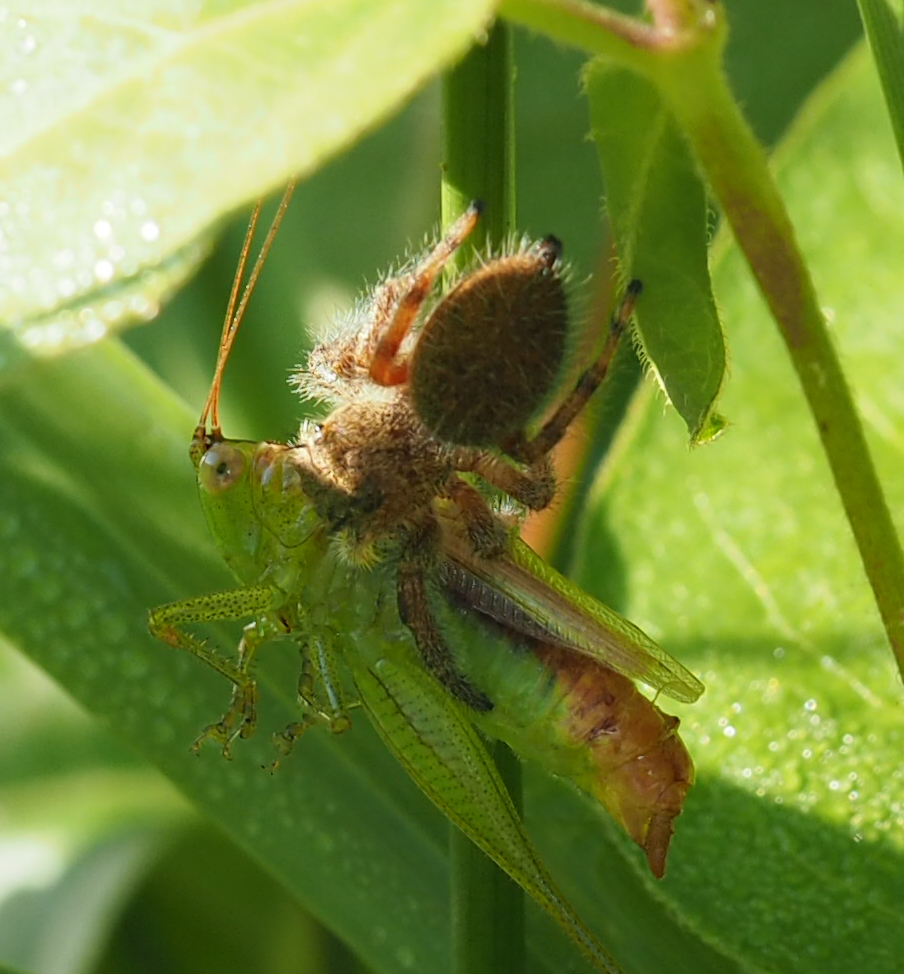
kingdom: Animalia
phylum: Arthropoda
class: Arachnida
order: Araneae
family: Salticidae
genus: Phidippus
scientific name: Phidippus princeps
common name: Grayish jumping spider
